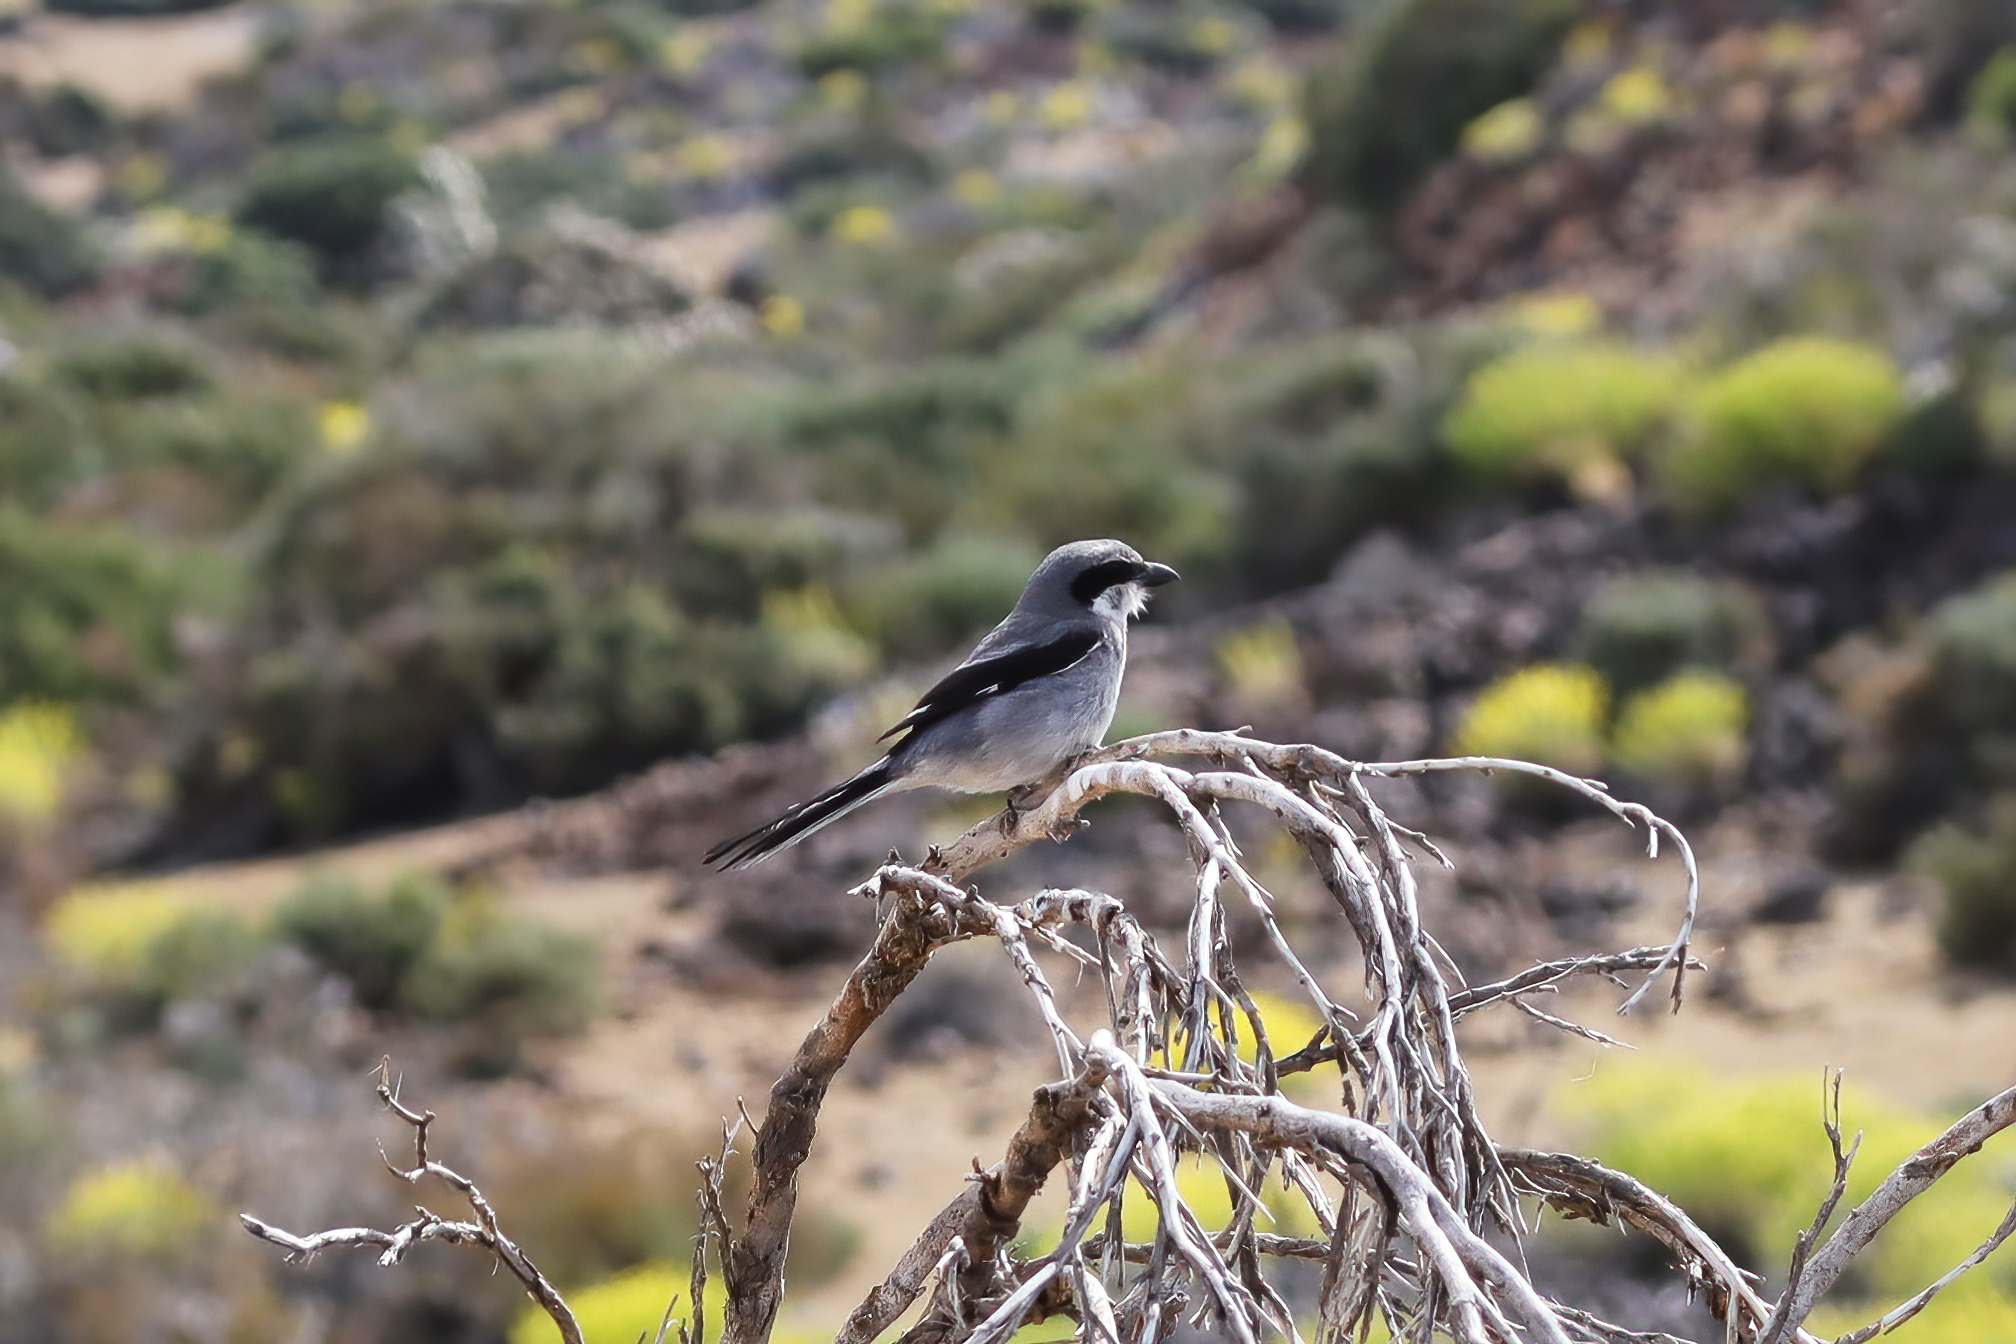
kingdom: Animalia
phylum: Chordata
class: Aves
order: Passeriformes
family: Laniidae
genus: Lanius
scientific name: Lanius excubitor
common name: Great grey shrike
